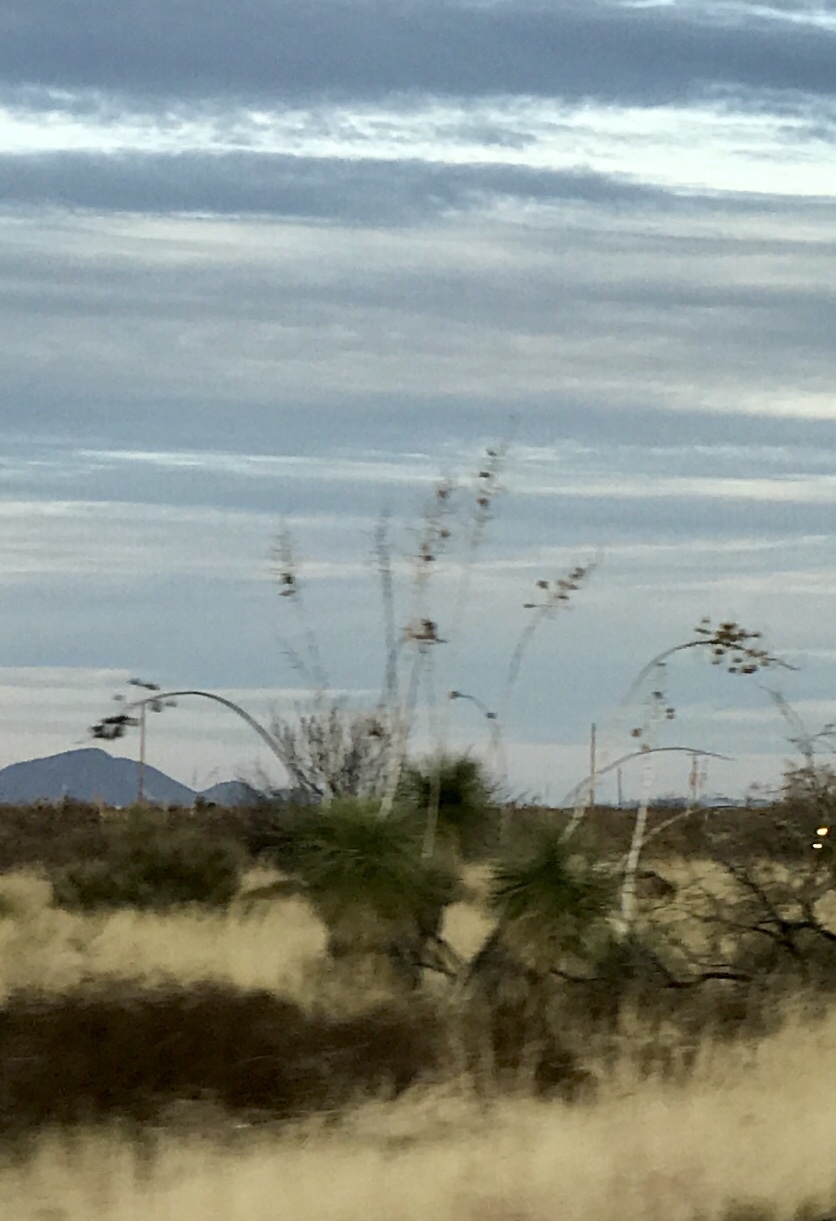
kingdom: Plantae
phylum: Tracheophyta
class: Liliopsida
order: Asparagales
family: Asparagaceae
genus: Yucca
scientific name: Yucca elata
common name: Palmella
